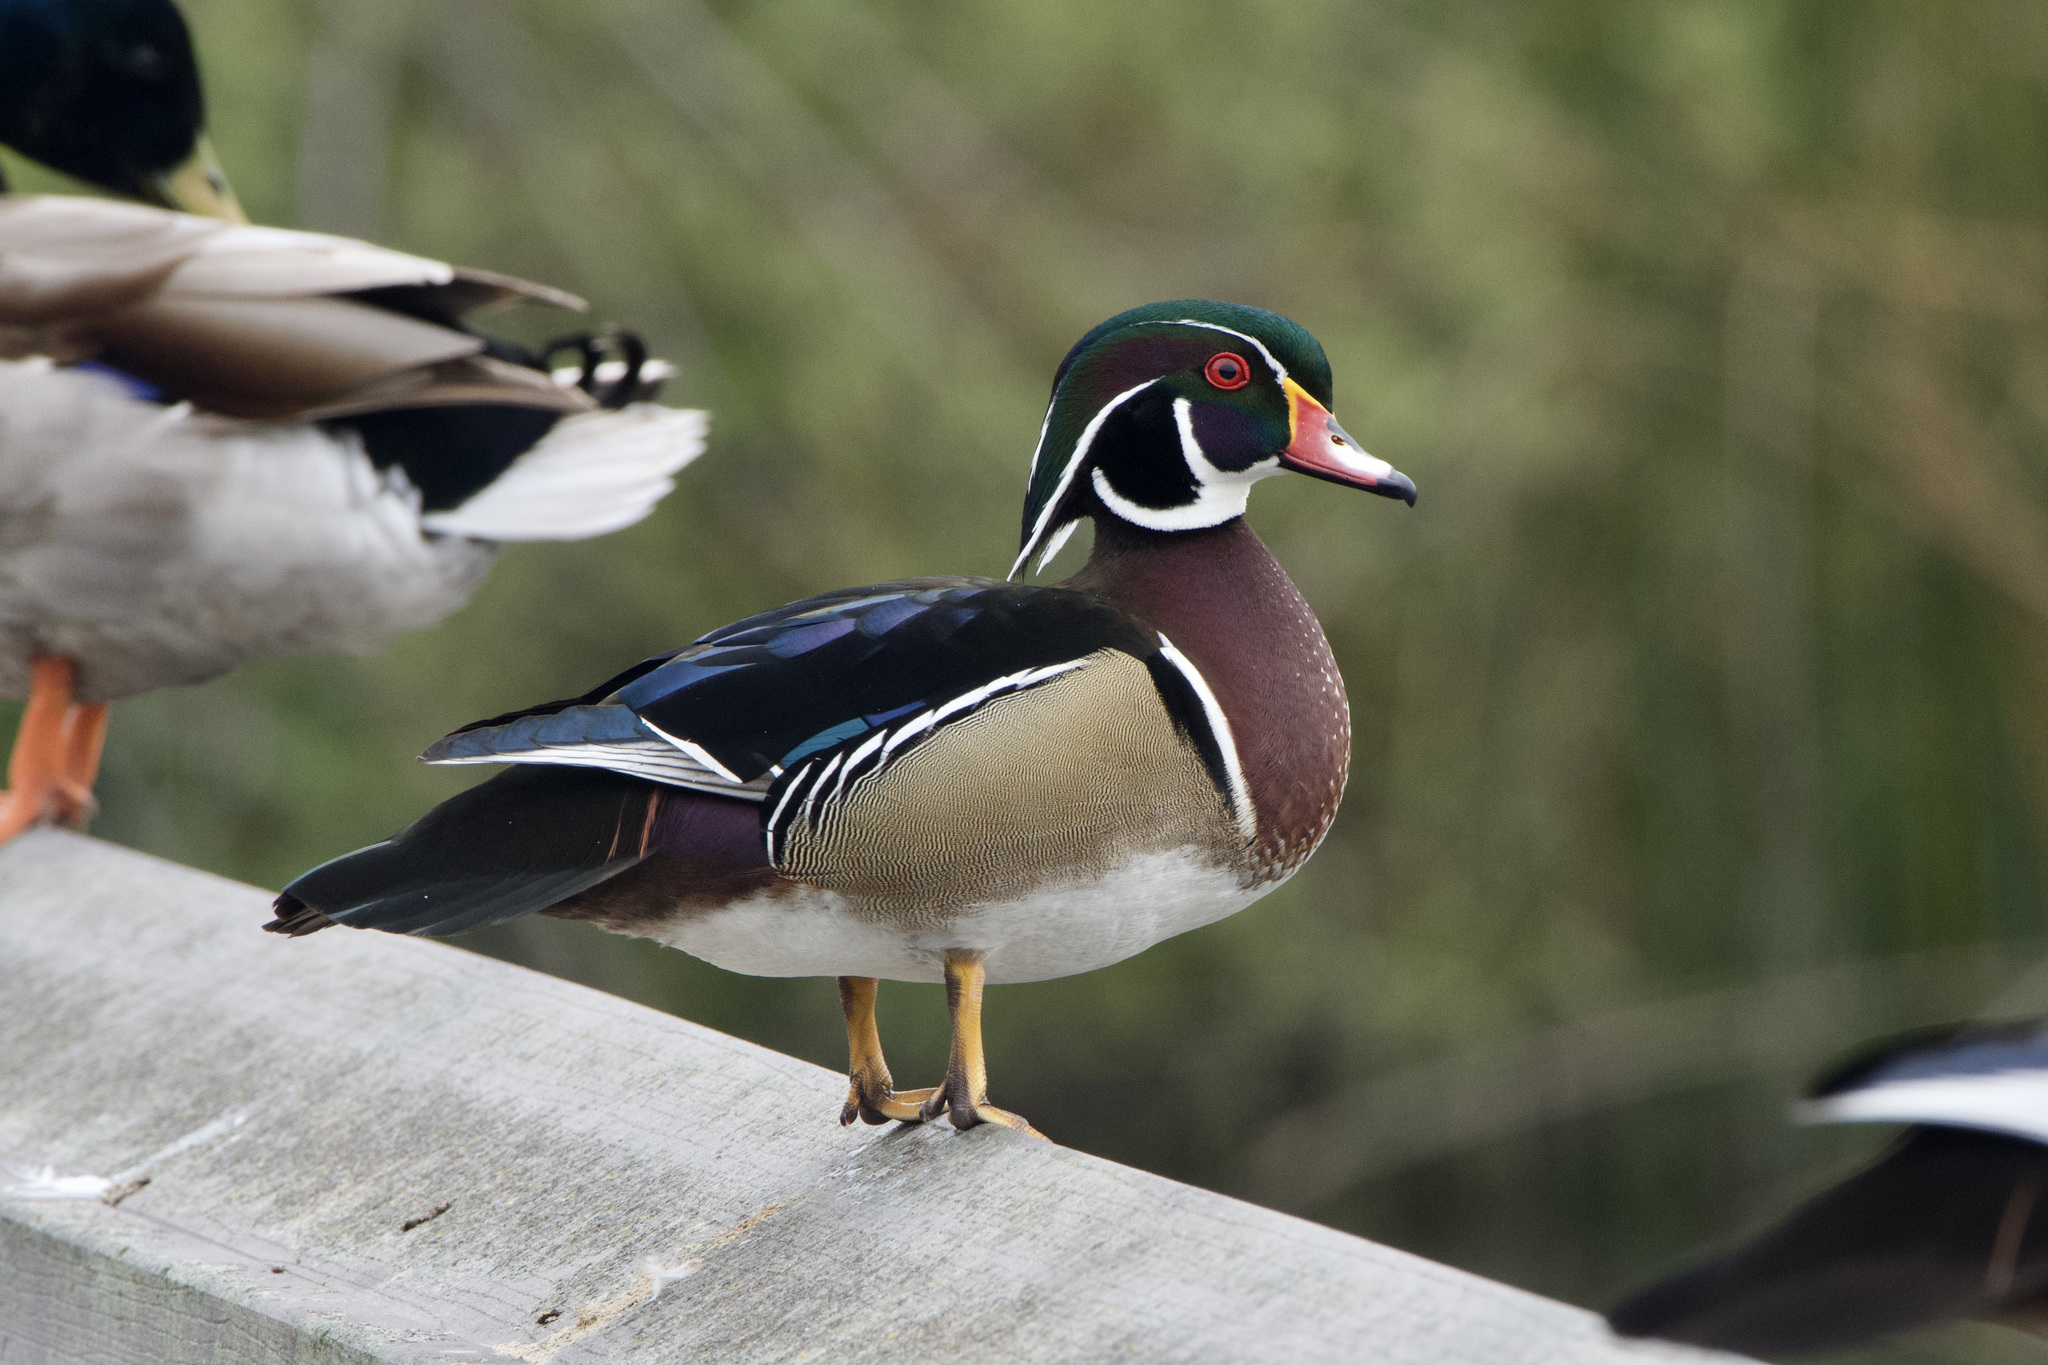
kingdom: Animalia
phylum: Chordata
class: Aves
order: Anseriformes
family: Anatidae
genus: Aix
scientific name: Aix sponsa
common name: Wood duck
